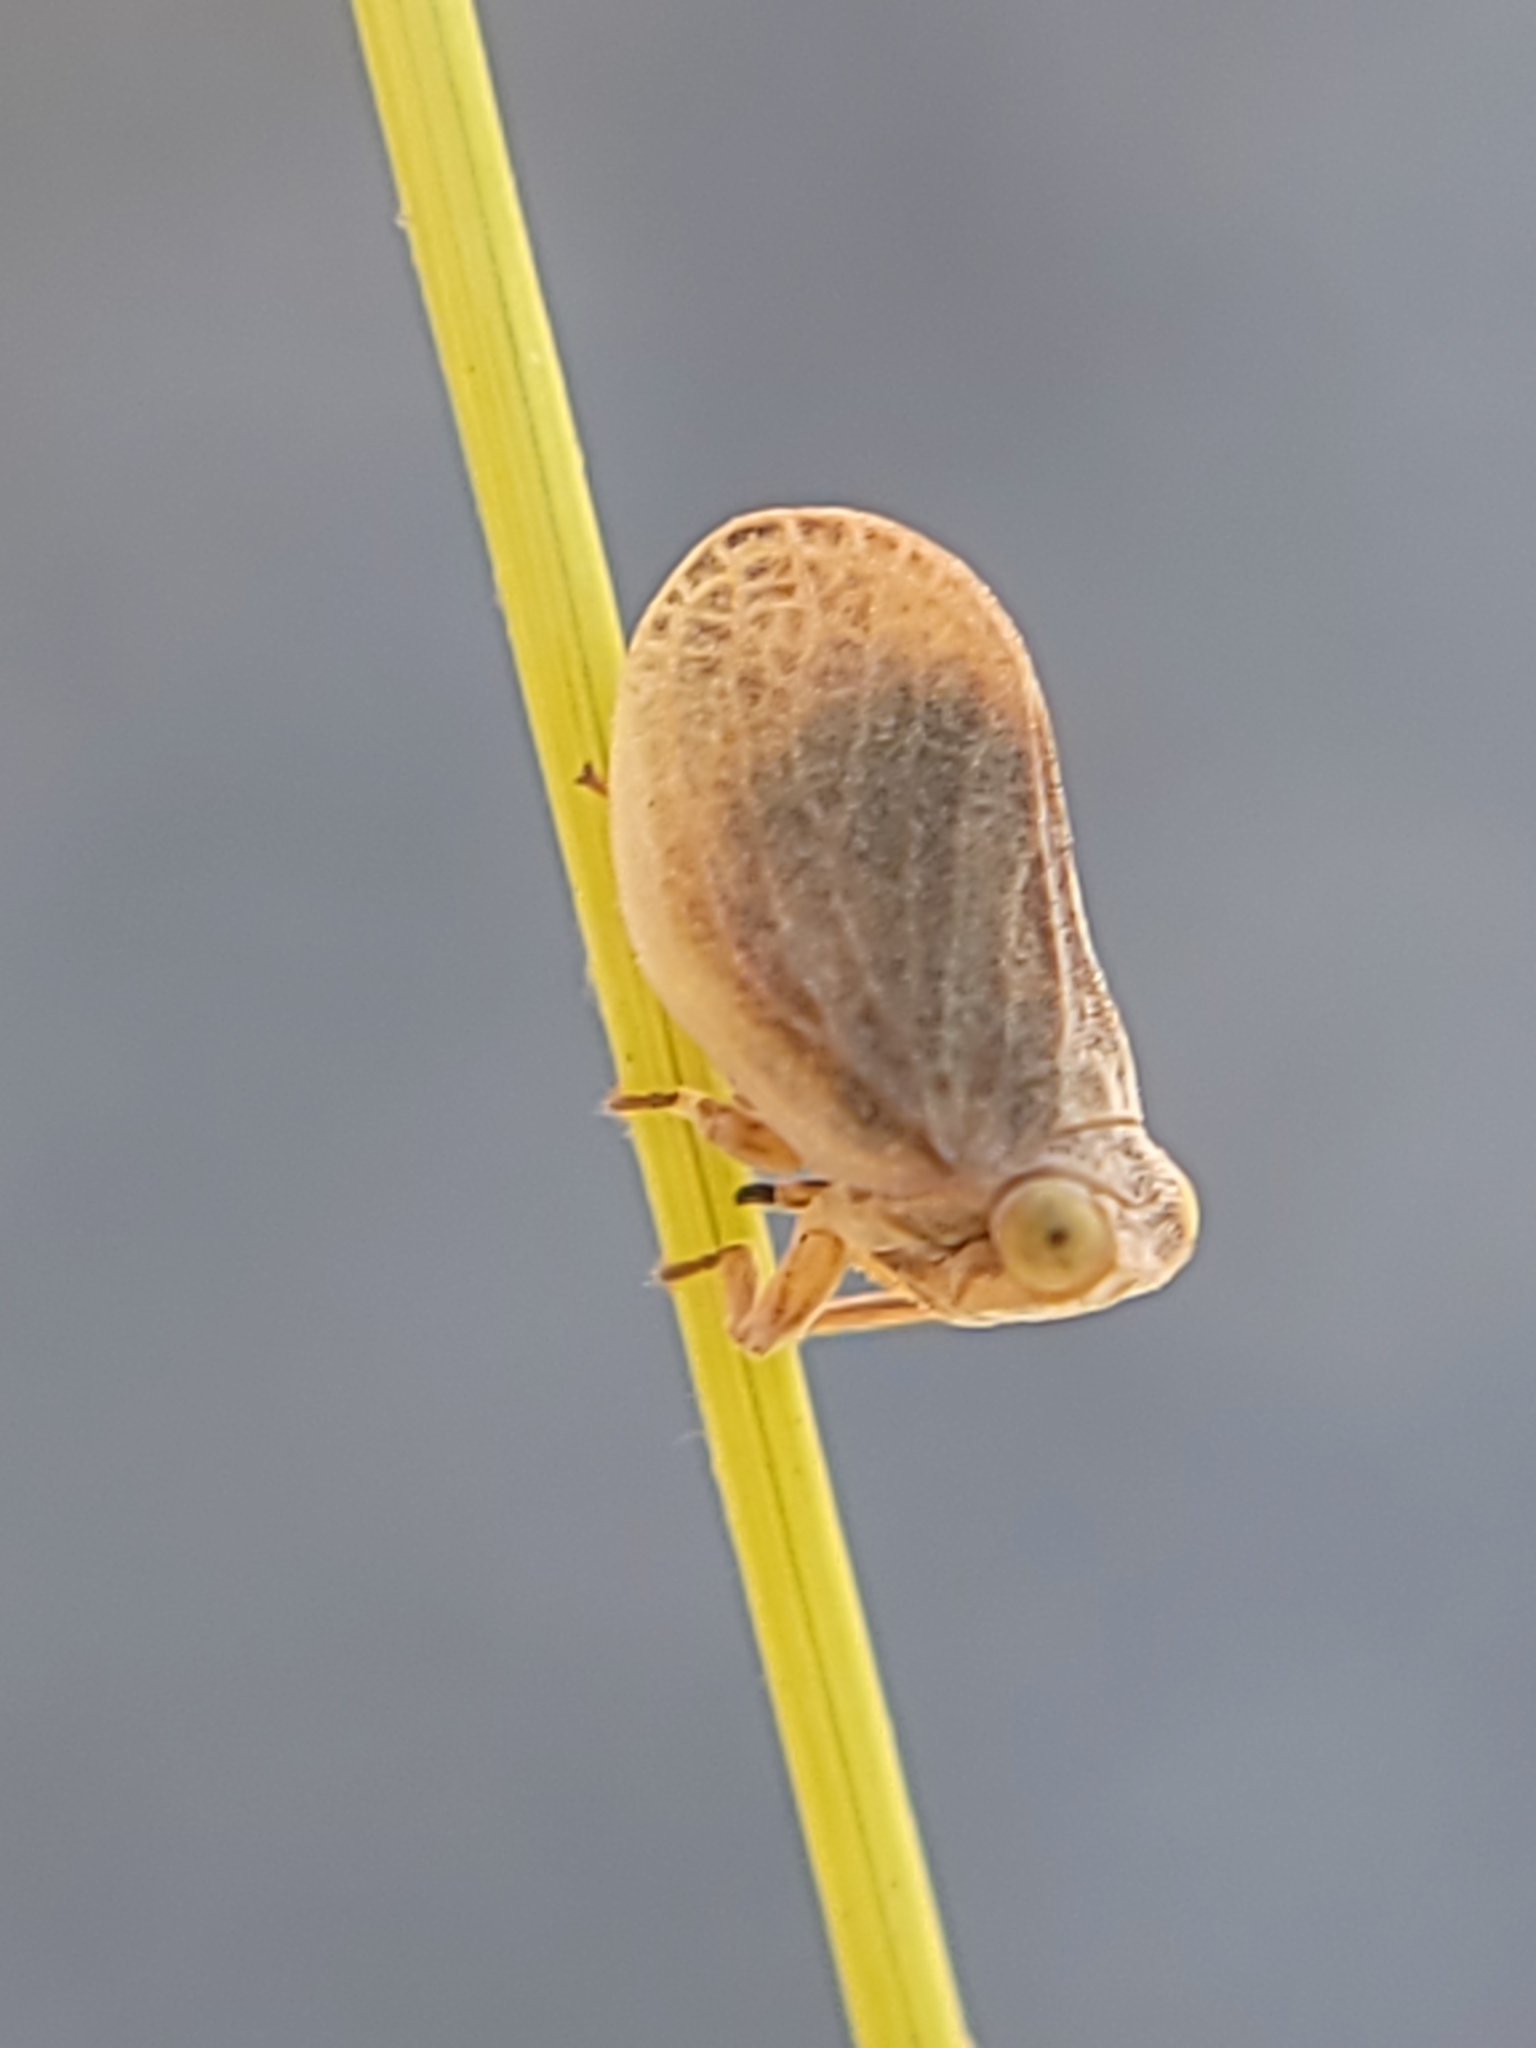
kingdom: Animalia
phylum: Arthropoda
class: Insecta
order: Hemiptera
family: Issidae
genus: Agalmatium
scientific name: Agalmatium bilobum
